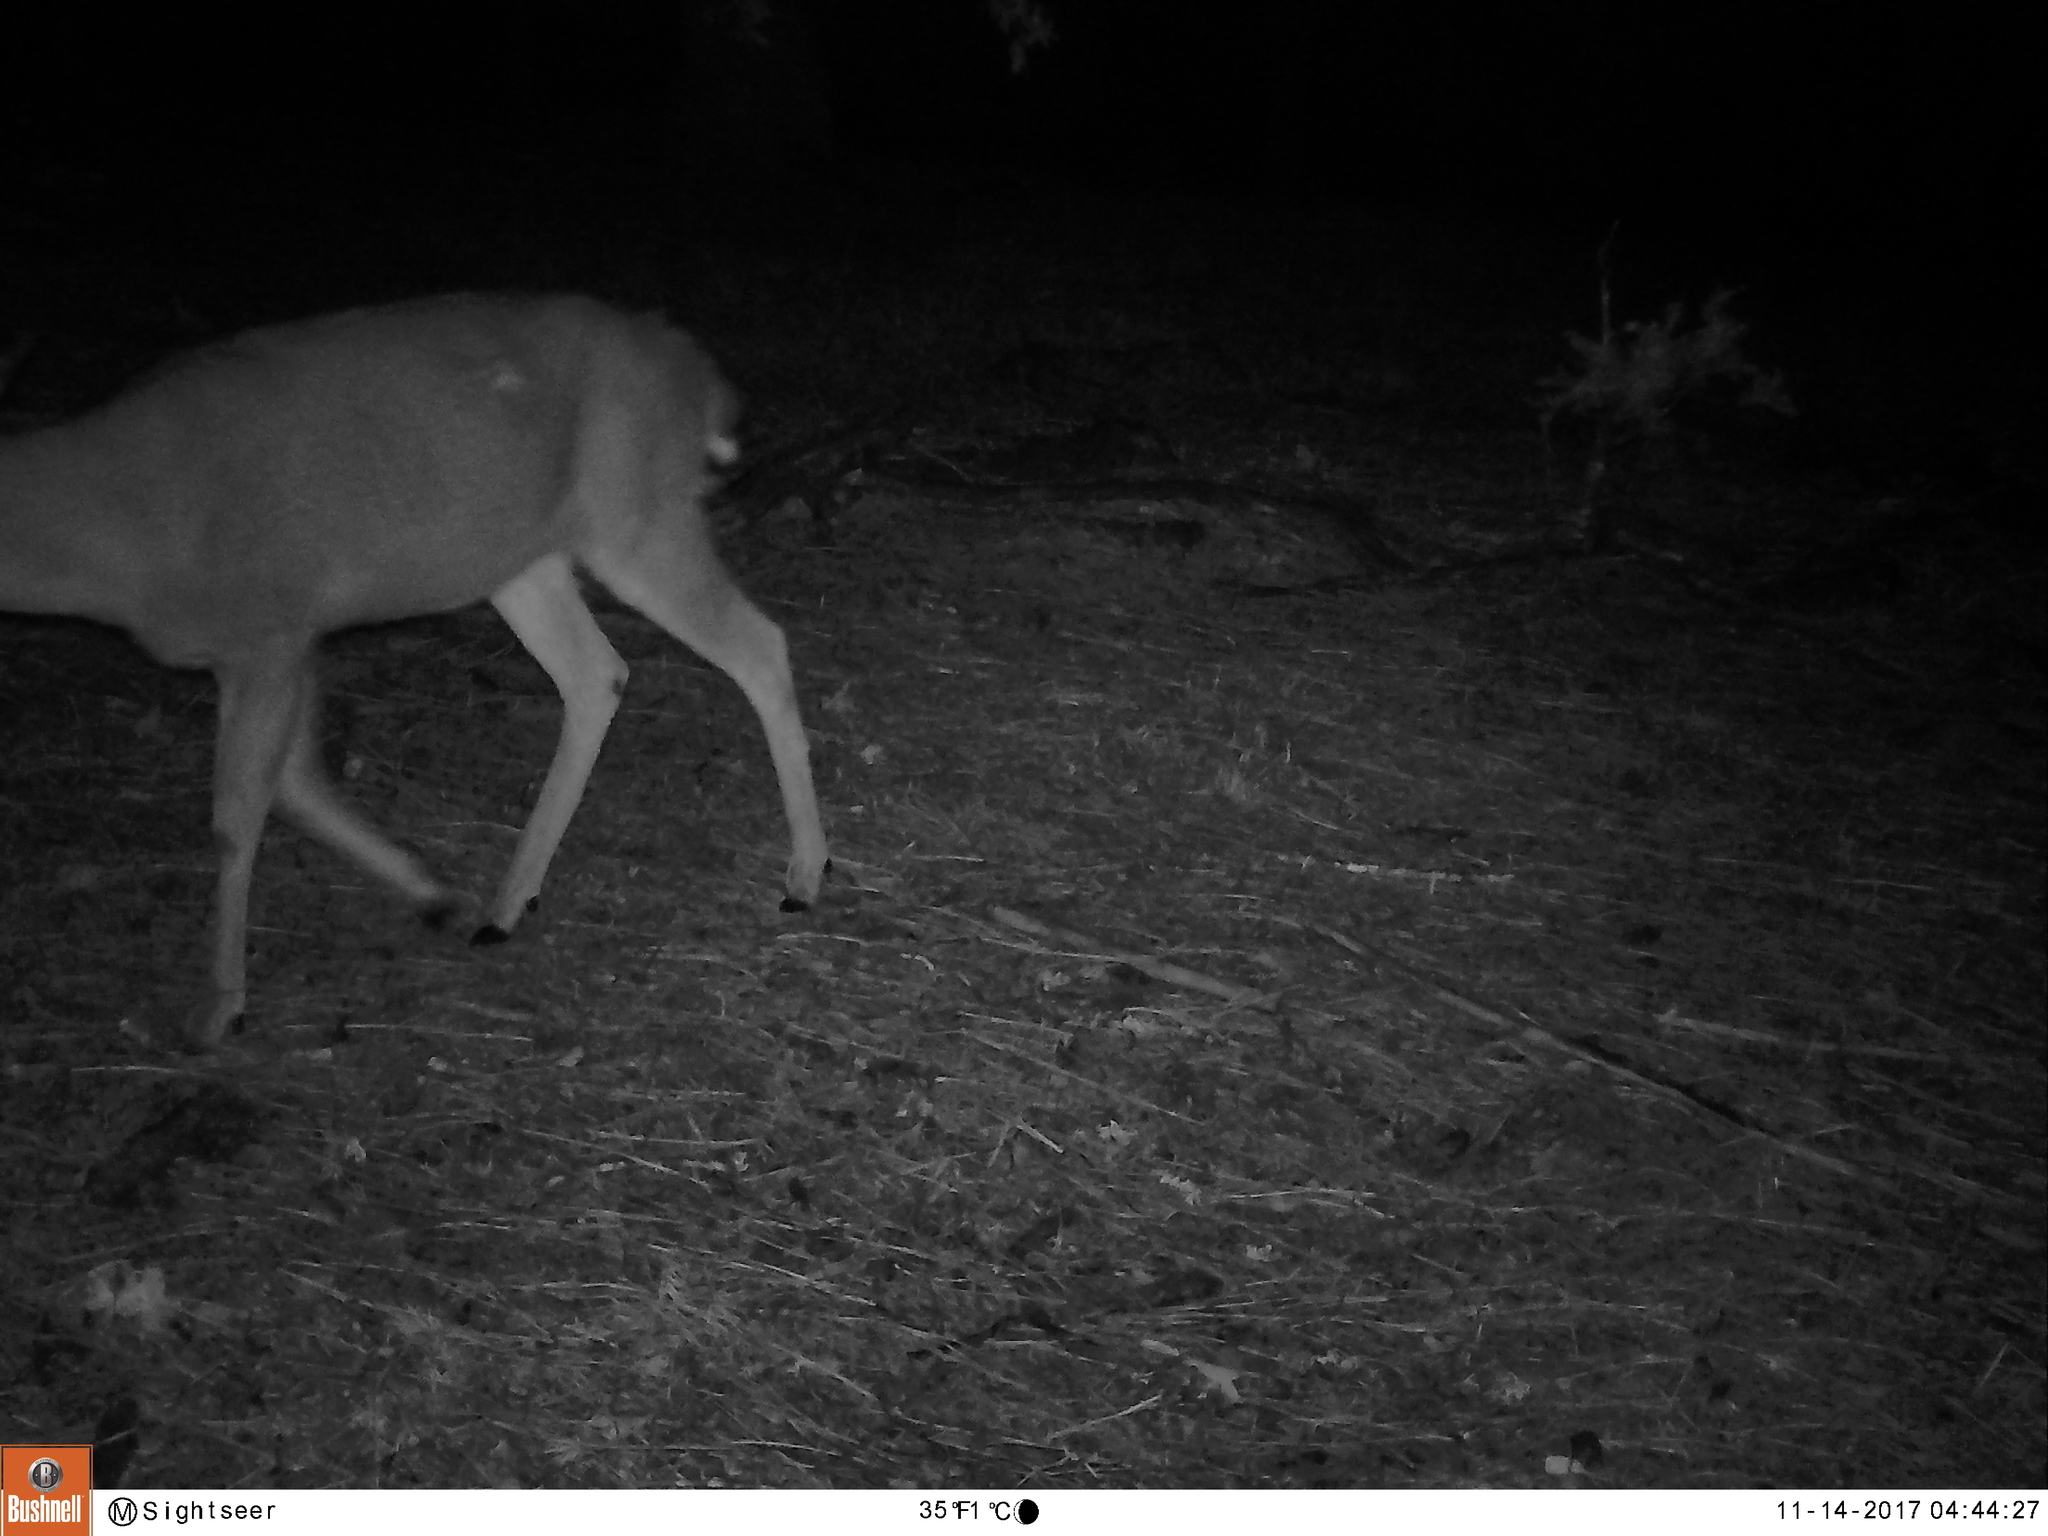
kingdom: Animalia
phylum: Chordata
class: Mammalia
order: Artiodactyla
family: Cervidae
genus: Odocoileus
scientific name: Odocoileus hemionus
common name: Mule deer
